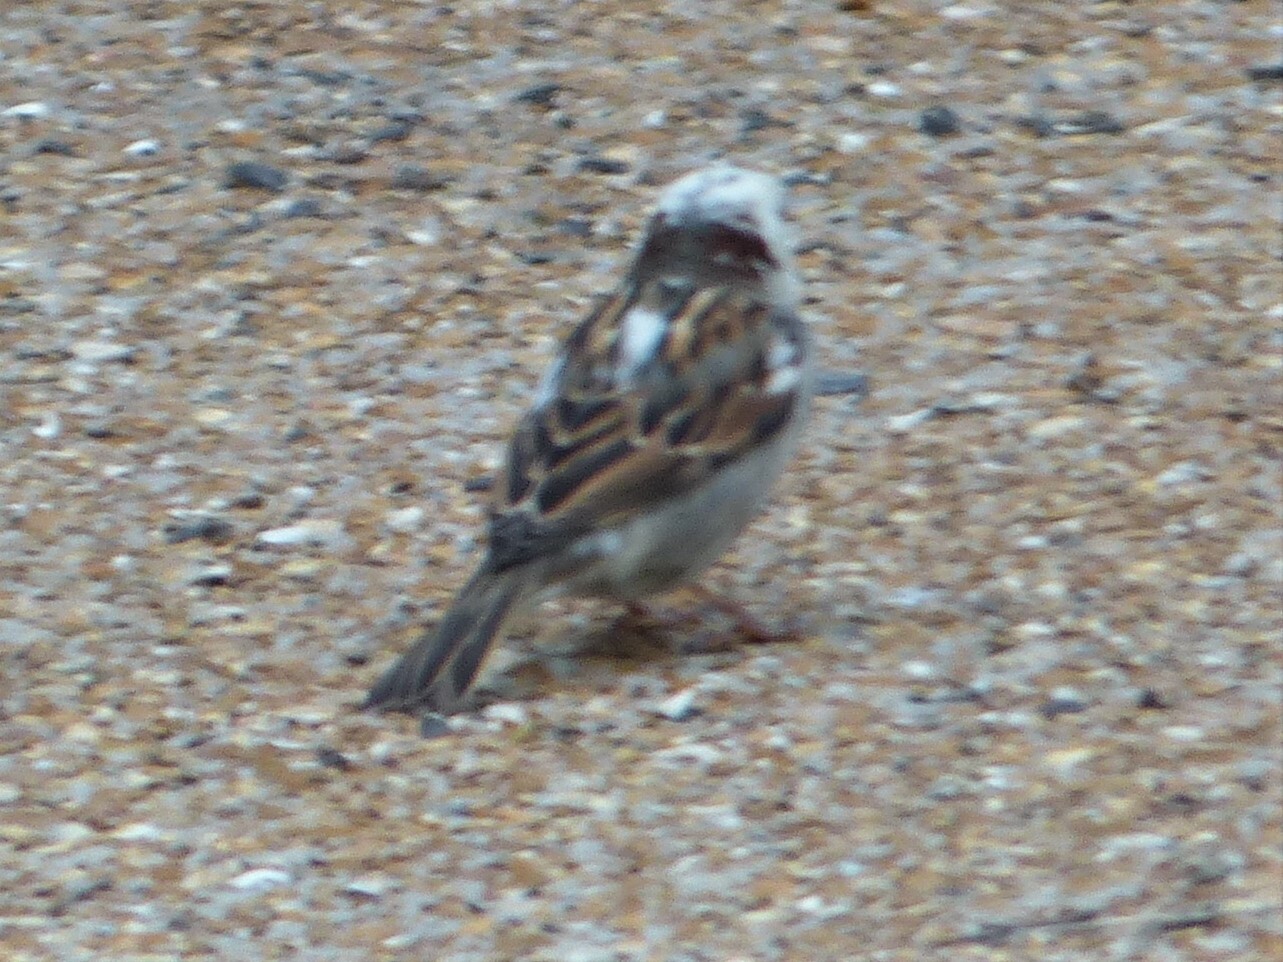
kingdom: Animalia
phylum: Chordata
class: Aves
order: Passeriformes
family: Passeridae
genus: Passer
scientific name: Passer domesticus
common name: House sparrow
